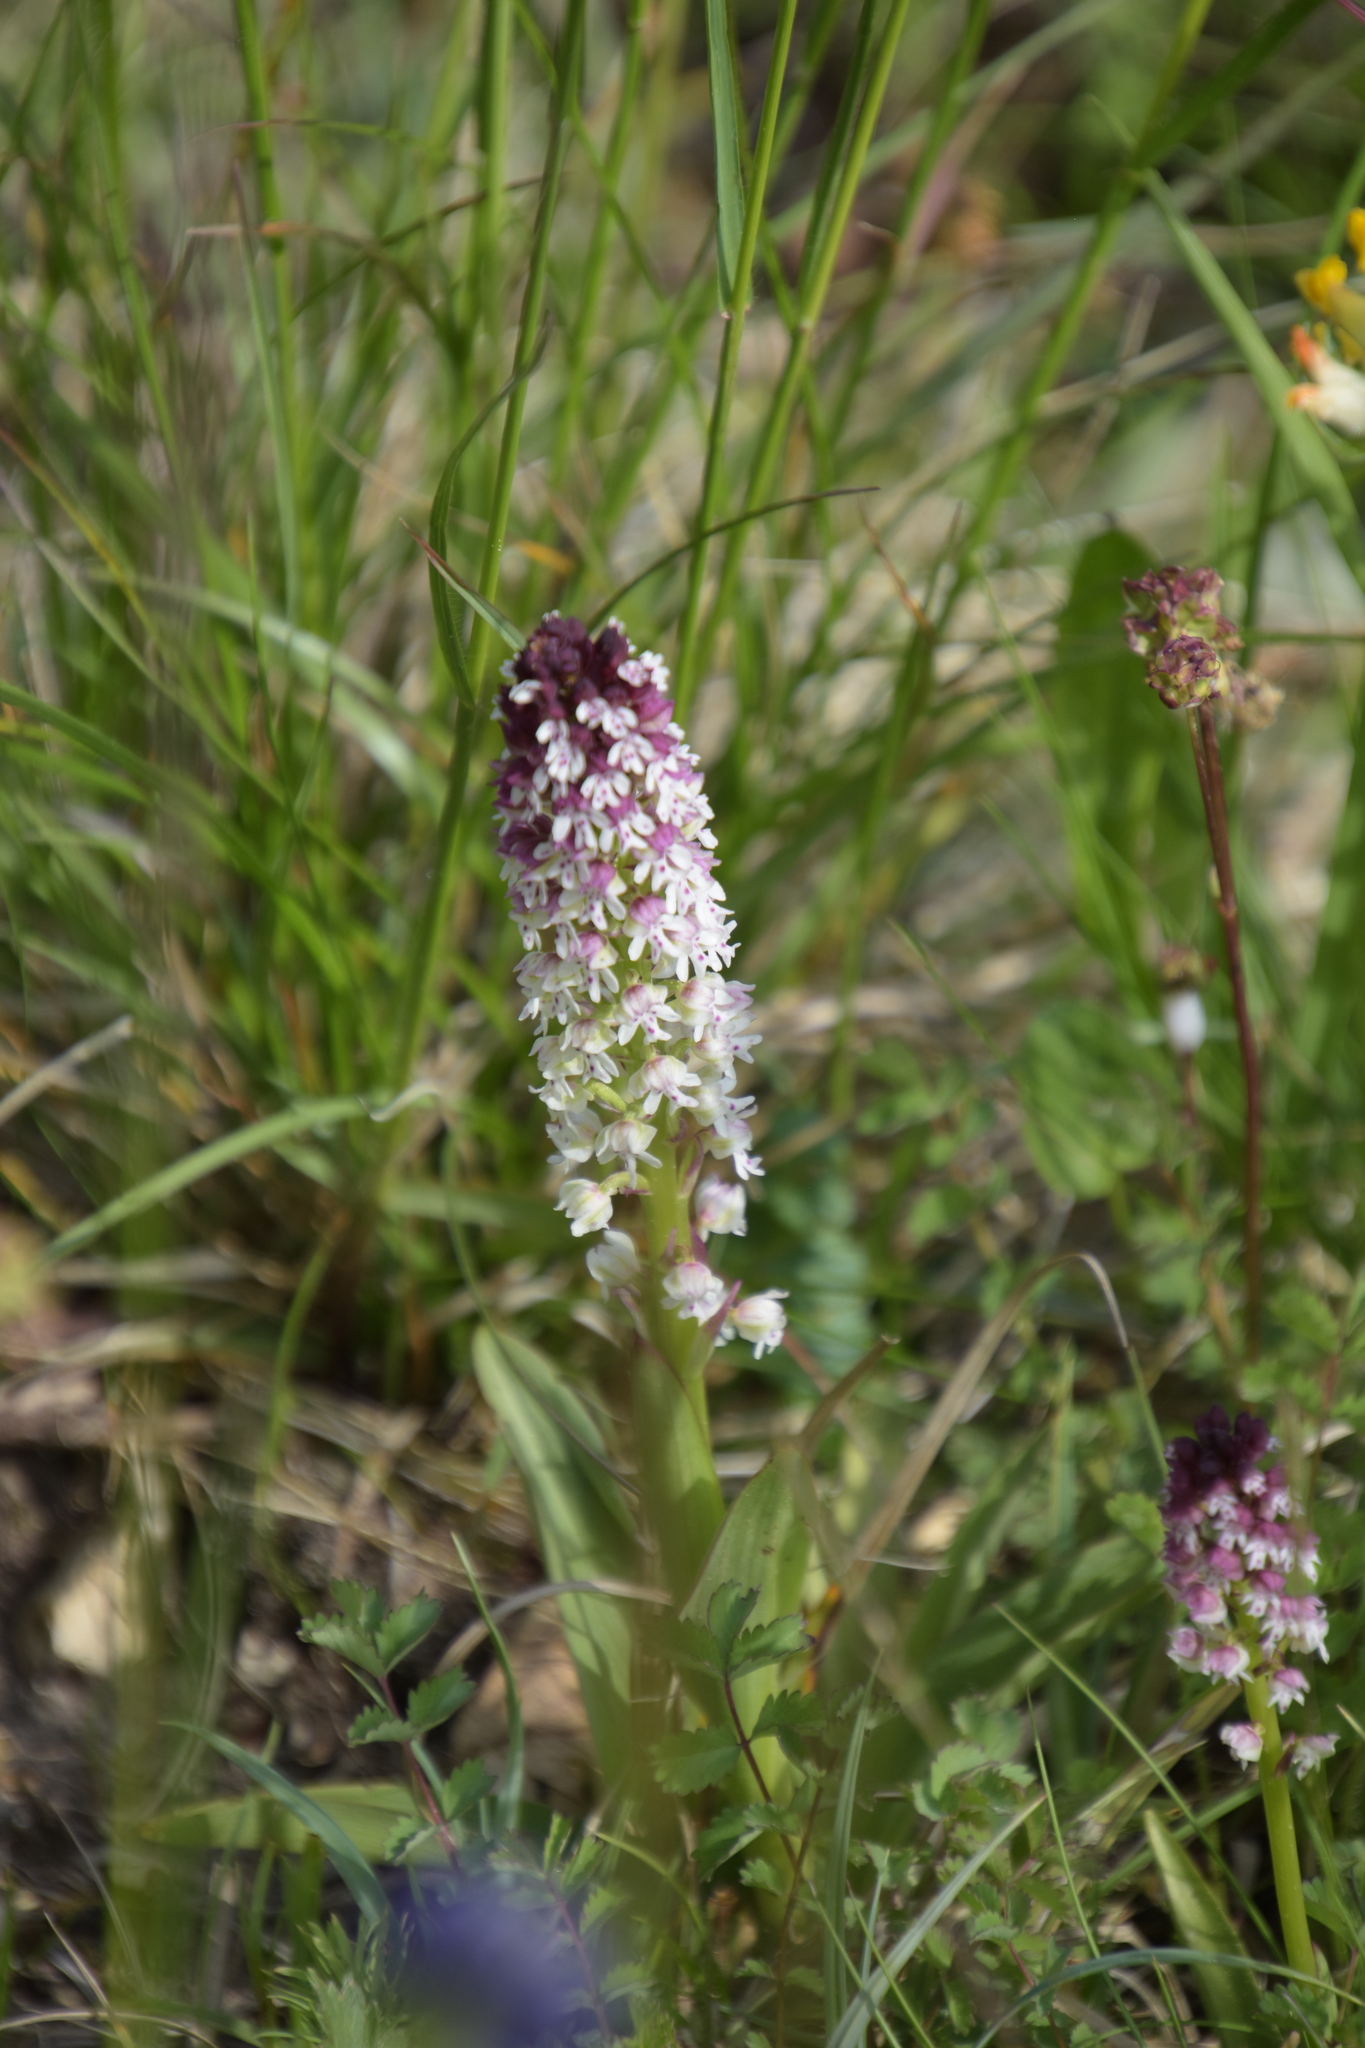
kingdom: Plantae
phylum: Tracheophyta
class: Liliopsida
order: Asparagales
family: Orchidaceae
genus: Neotinea
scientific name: Neotinea ustulata
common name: Burnt orchid
